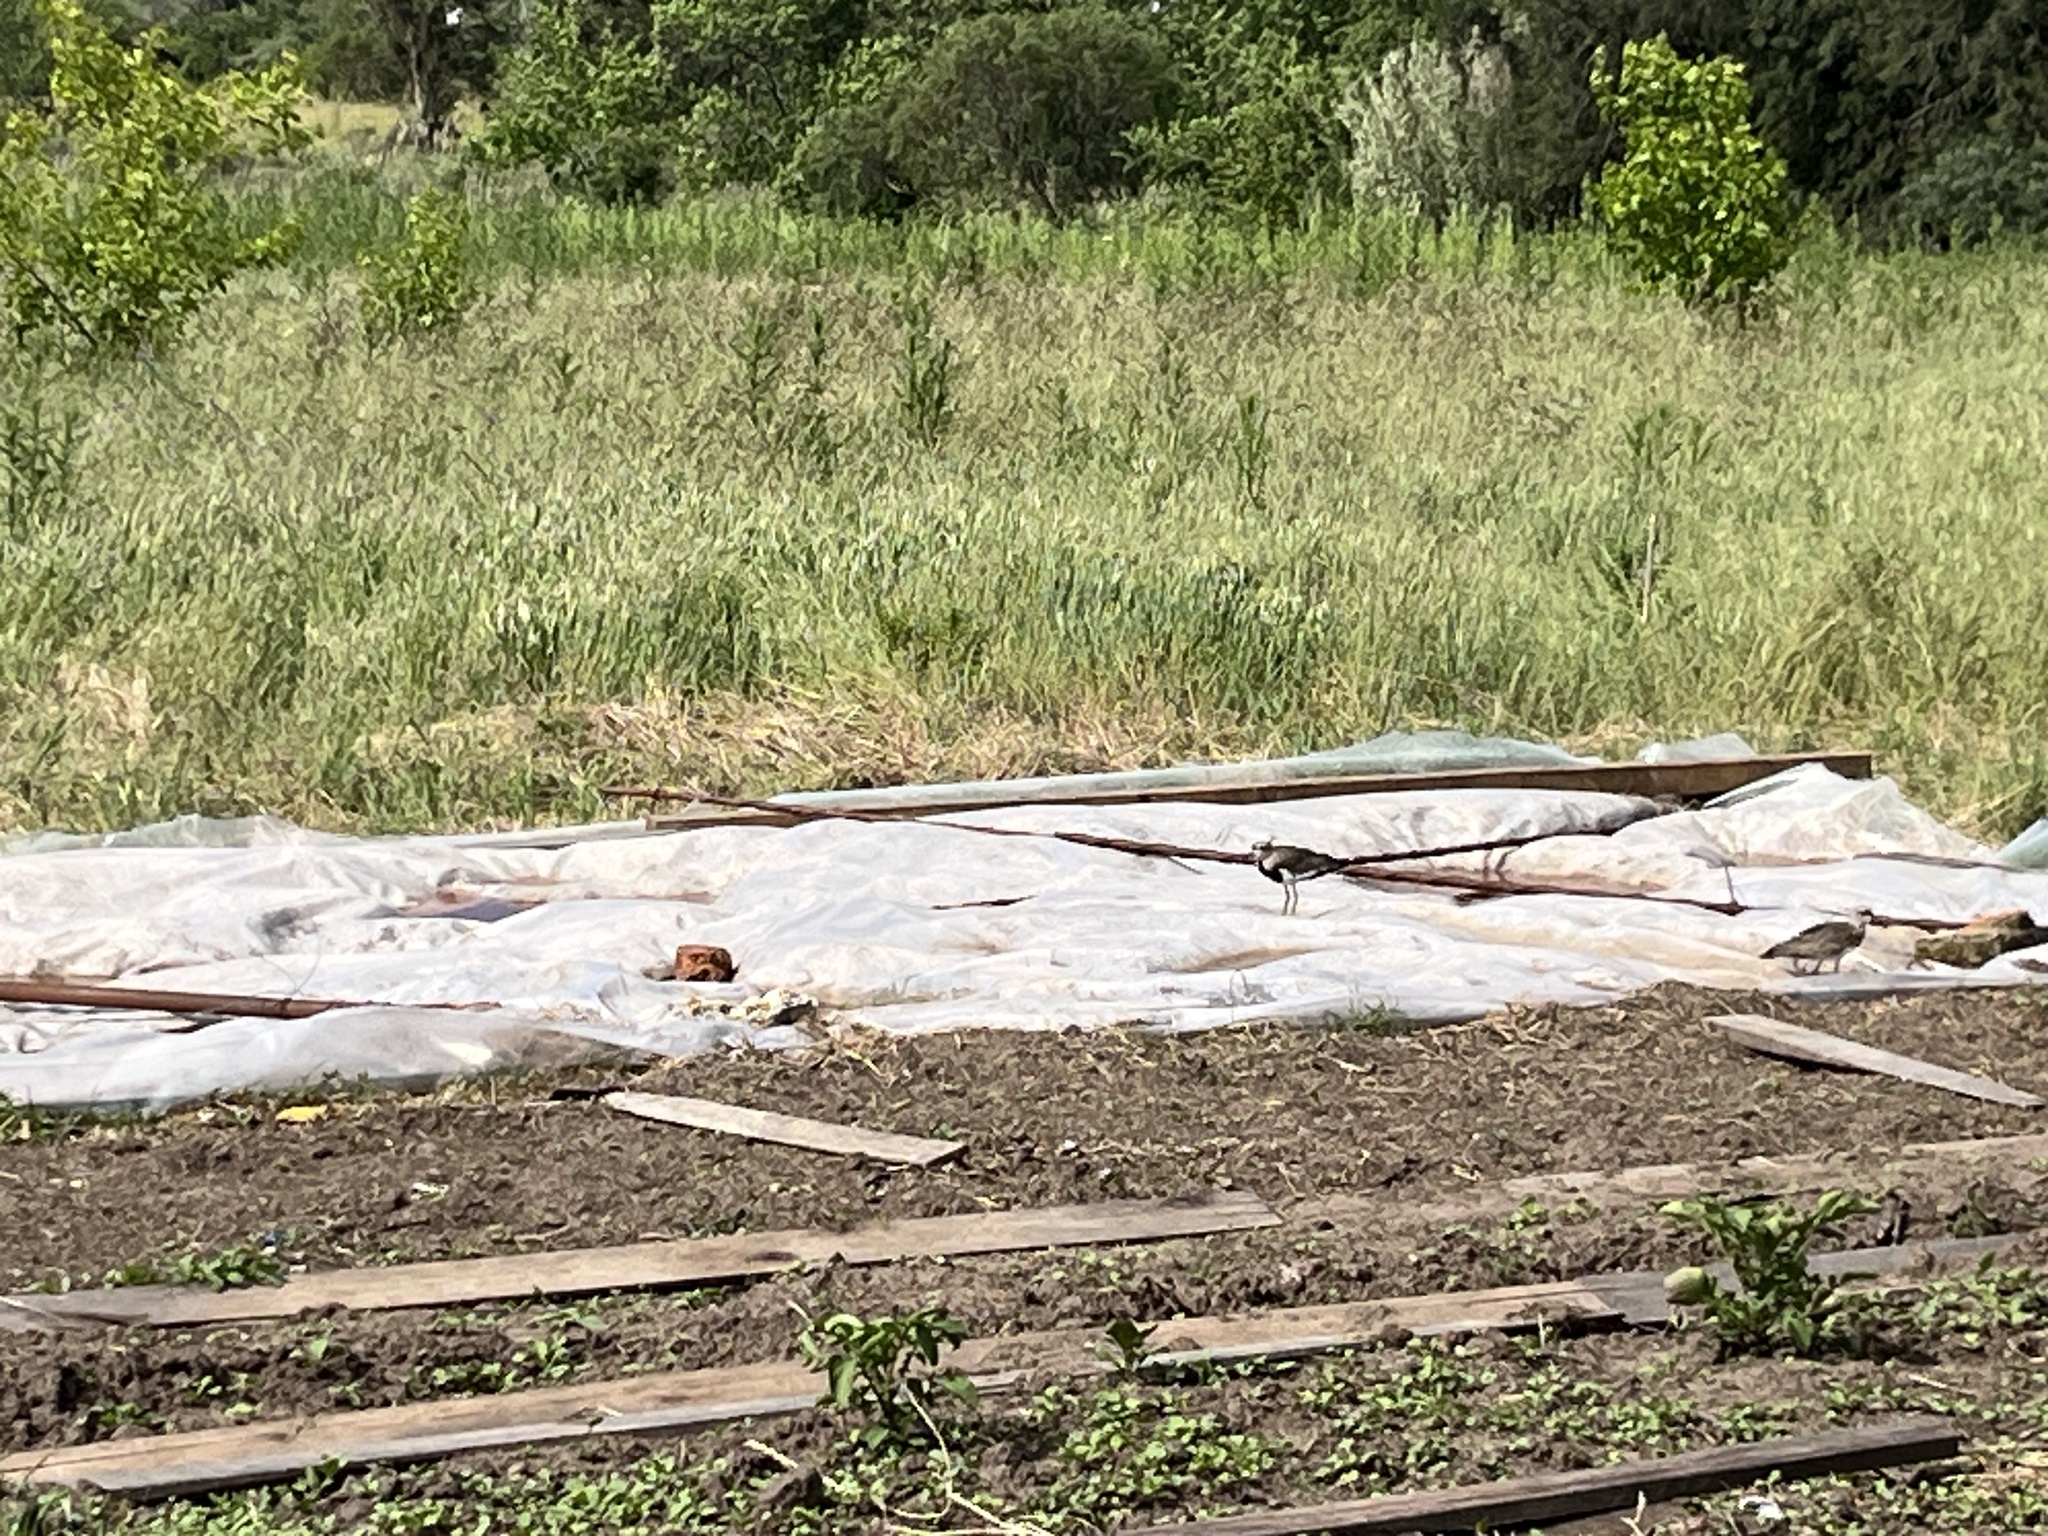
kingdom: Animalia
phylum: Chordata
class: Aves
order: Charadriiformes
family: Charadriidae
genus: Vanellus
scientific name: Vanellus chilensis
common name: Southern lapwing
